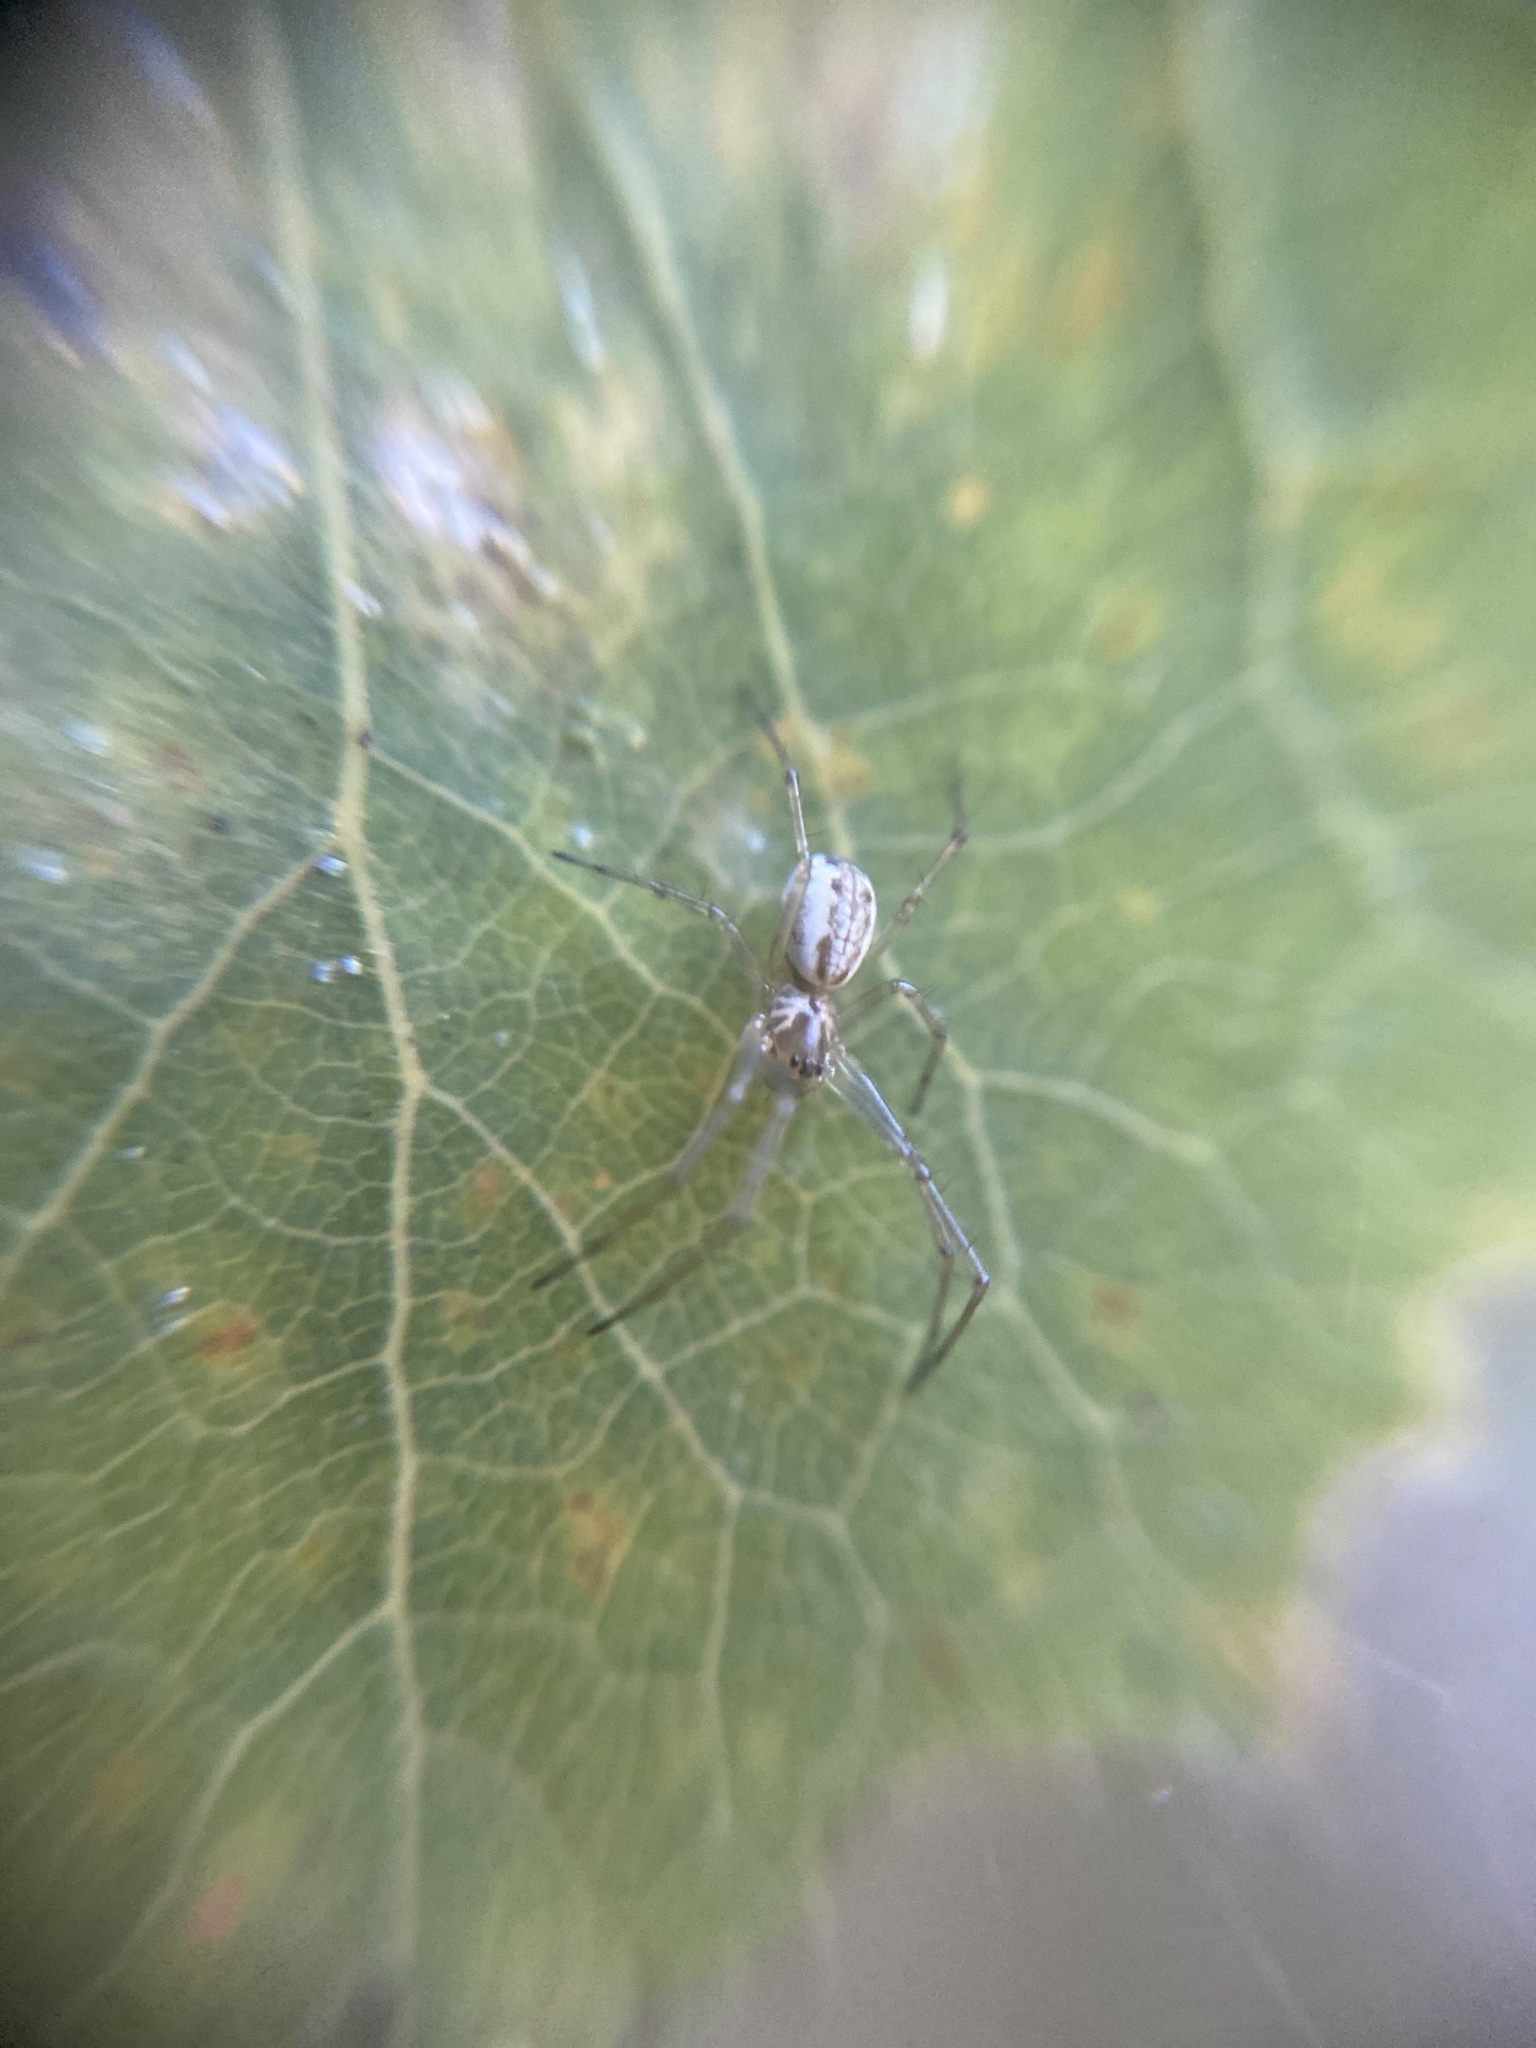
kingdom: Animalia
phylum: Arthropoda
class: Arachnida
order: Araneae
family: Linyphiidae
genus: Neriene
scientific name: Neriene peltata
